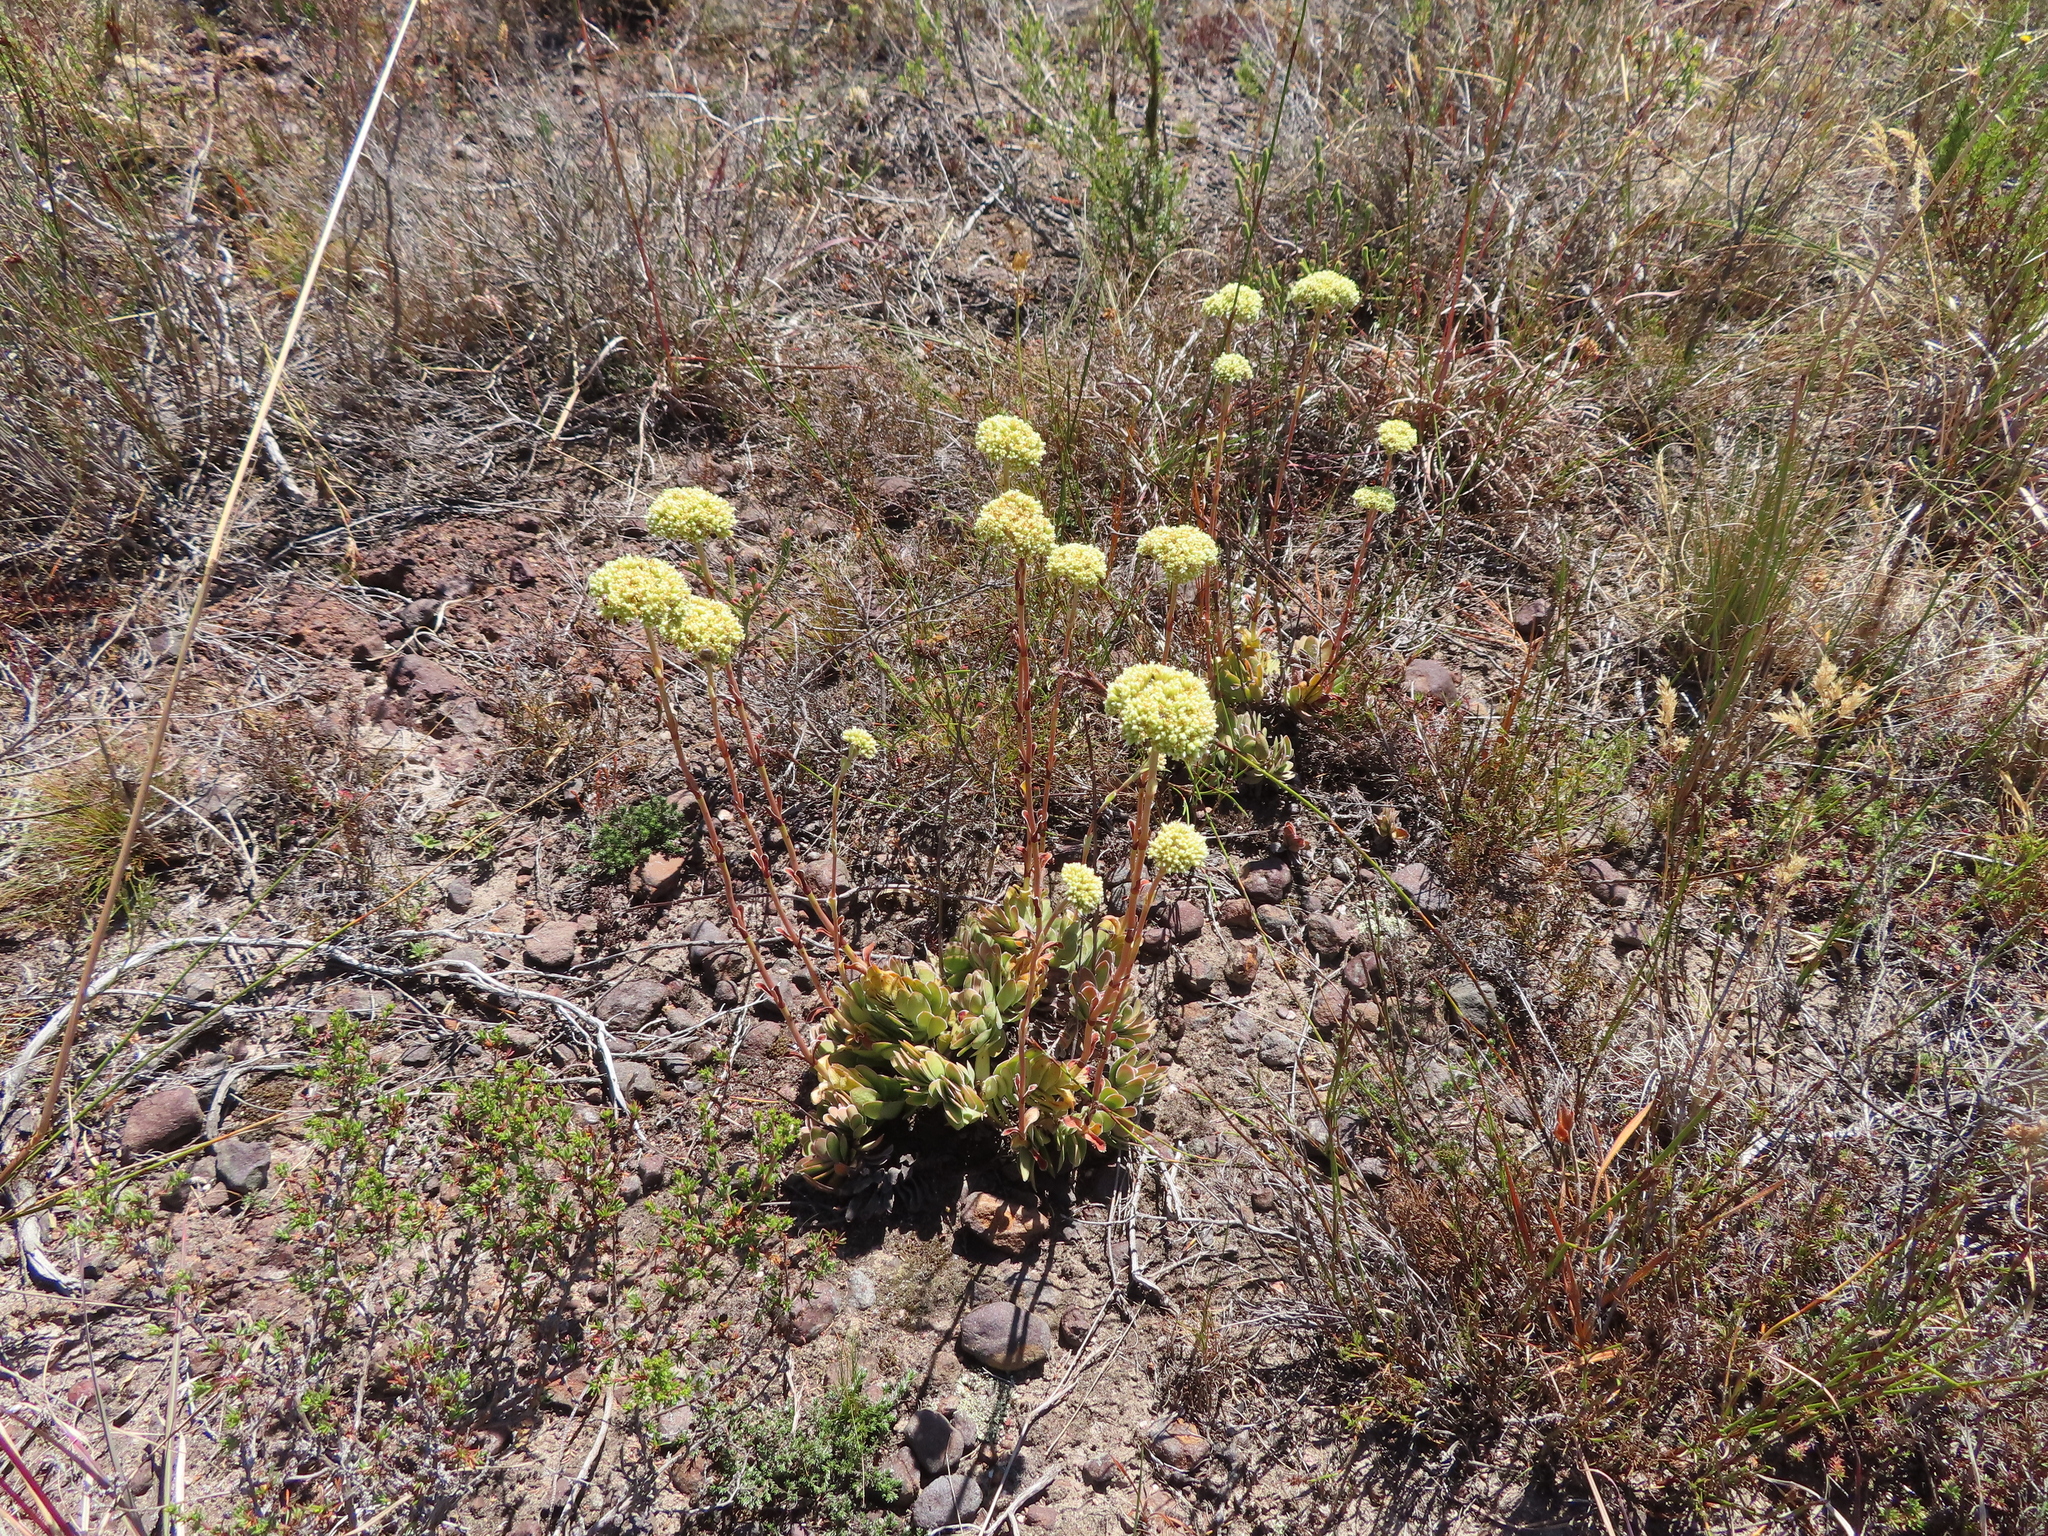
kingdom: Plantae
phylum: Tracheophyta
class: Magnoliopsida
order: Saxifragales
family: Crassulaceae
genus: Crassula
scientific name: Crassula ciliata
